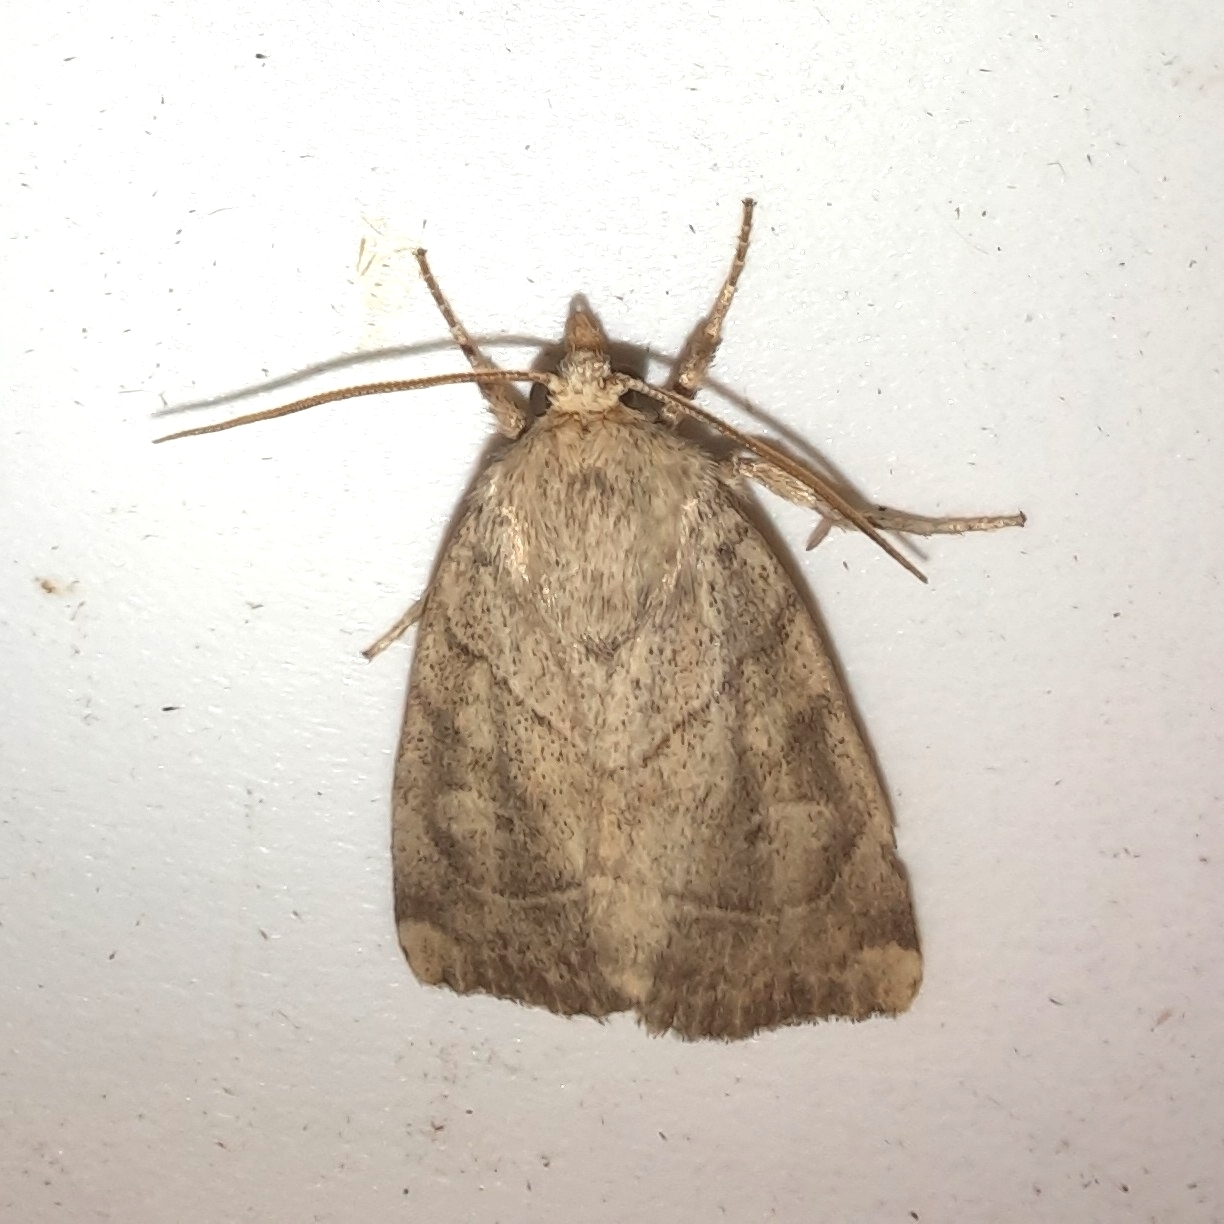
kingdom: Animalia
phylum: Arthropoda
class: Insecta
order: Lepidoptera
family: Noctuidae
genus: Cosmia
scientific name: Cosmia trapezina
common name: Dun-bar
